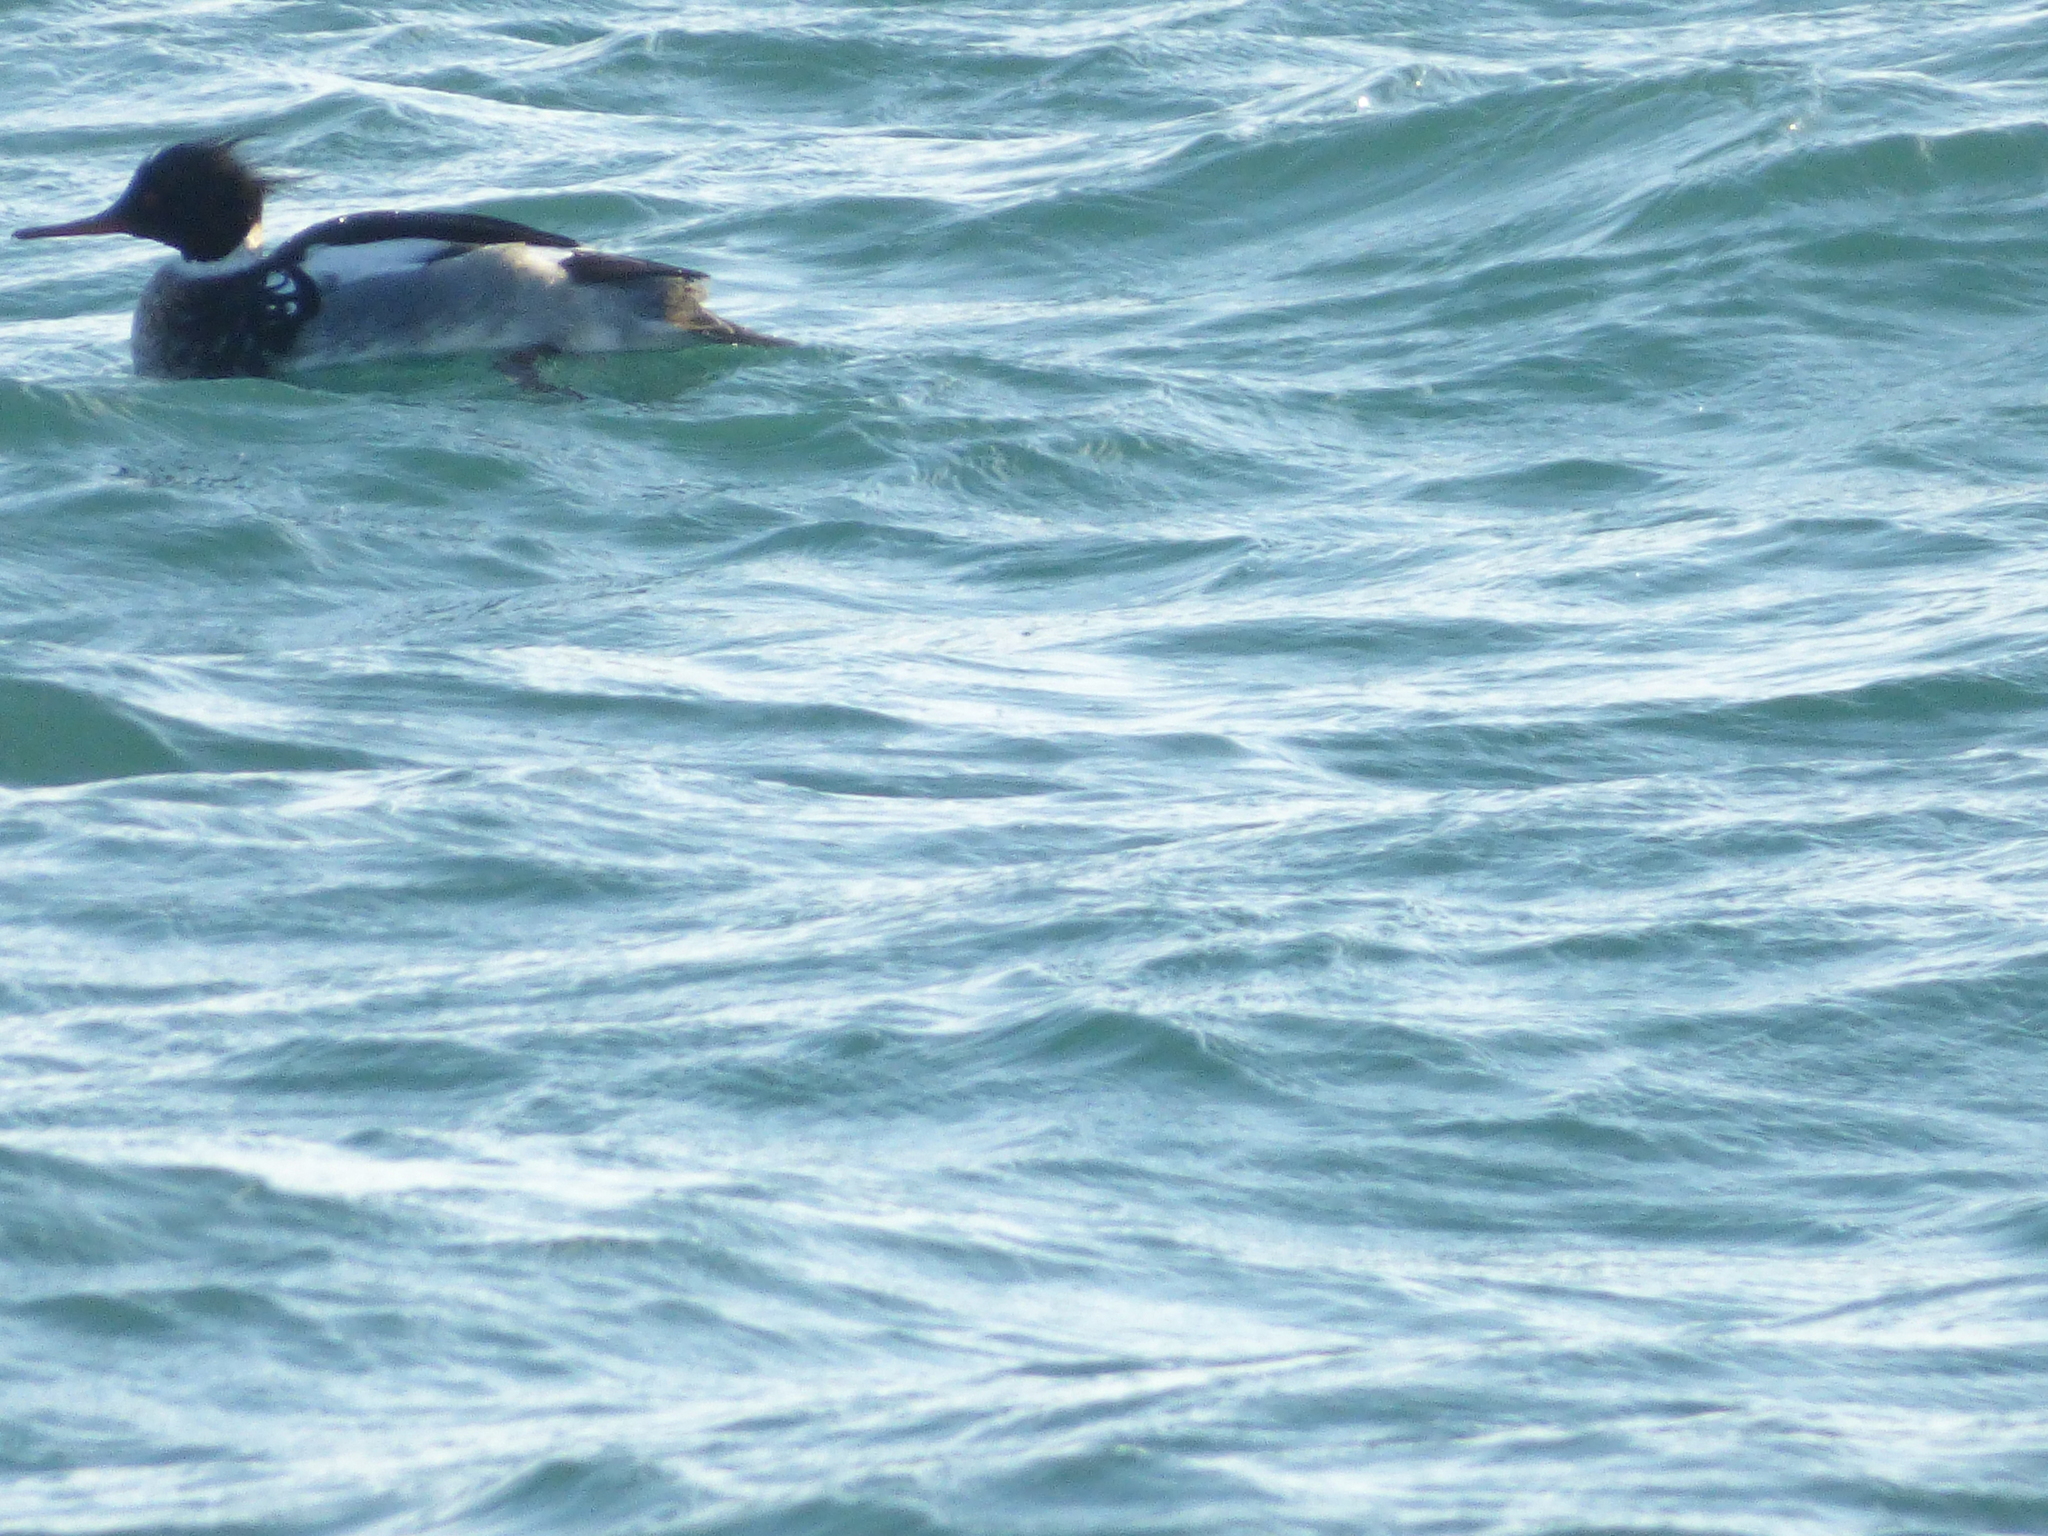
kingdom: Animalia
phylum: Chordata
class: Aves
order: Anseriformes
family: Anatidae
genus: Mergus
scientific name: Mergus serrator
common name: Red-breasted merganser
